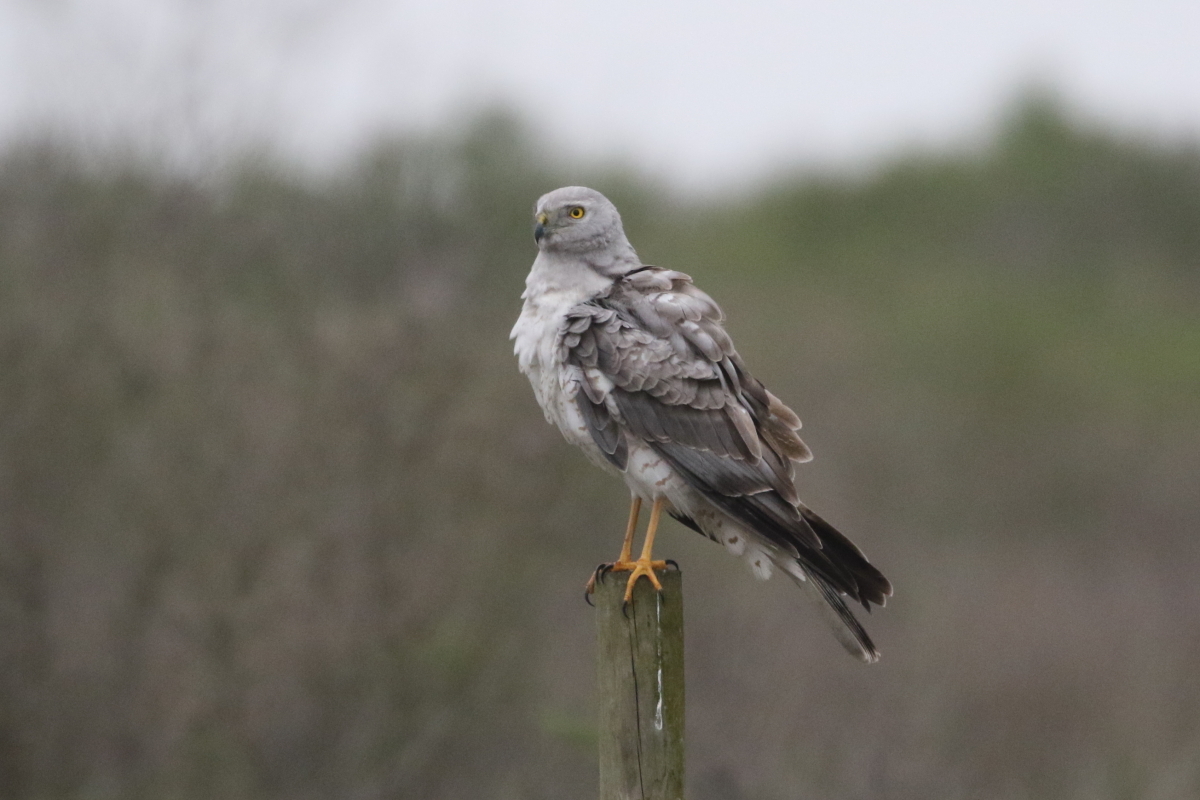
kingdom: Animalia
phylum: Chordata
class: Aves
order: Accipitriformes
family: Accipitridae
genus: Circus
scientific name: Circus cyaneus
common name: Hen harrier
